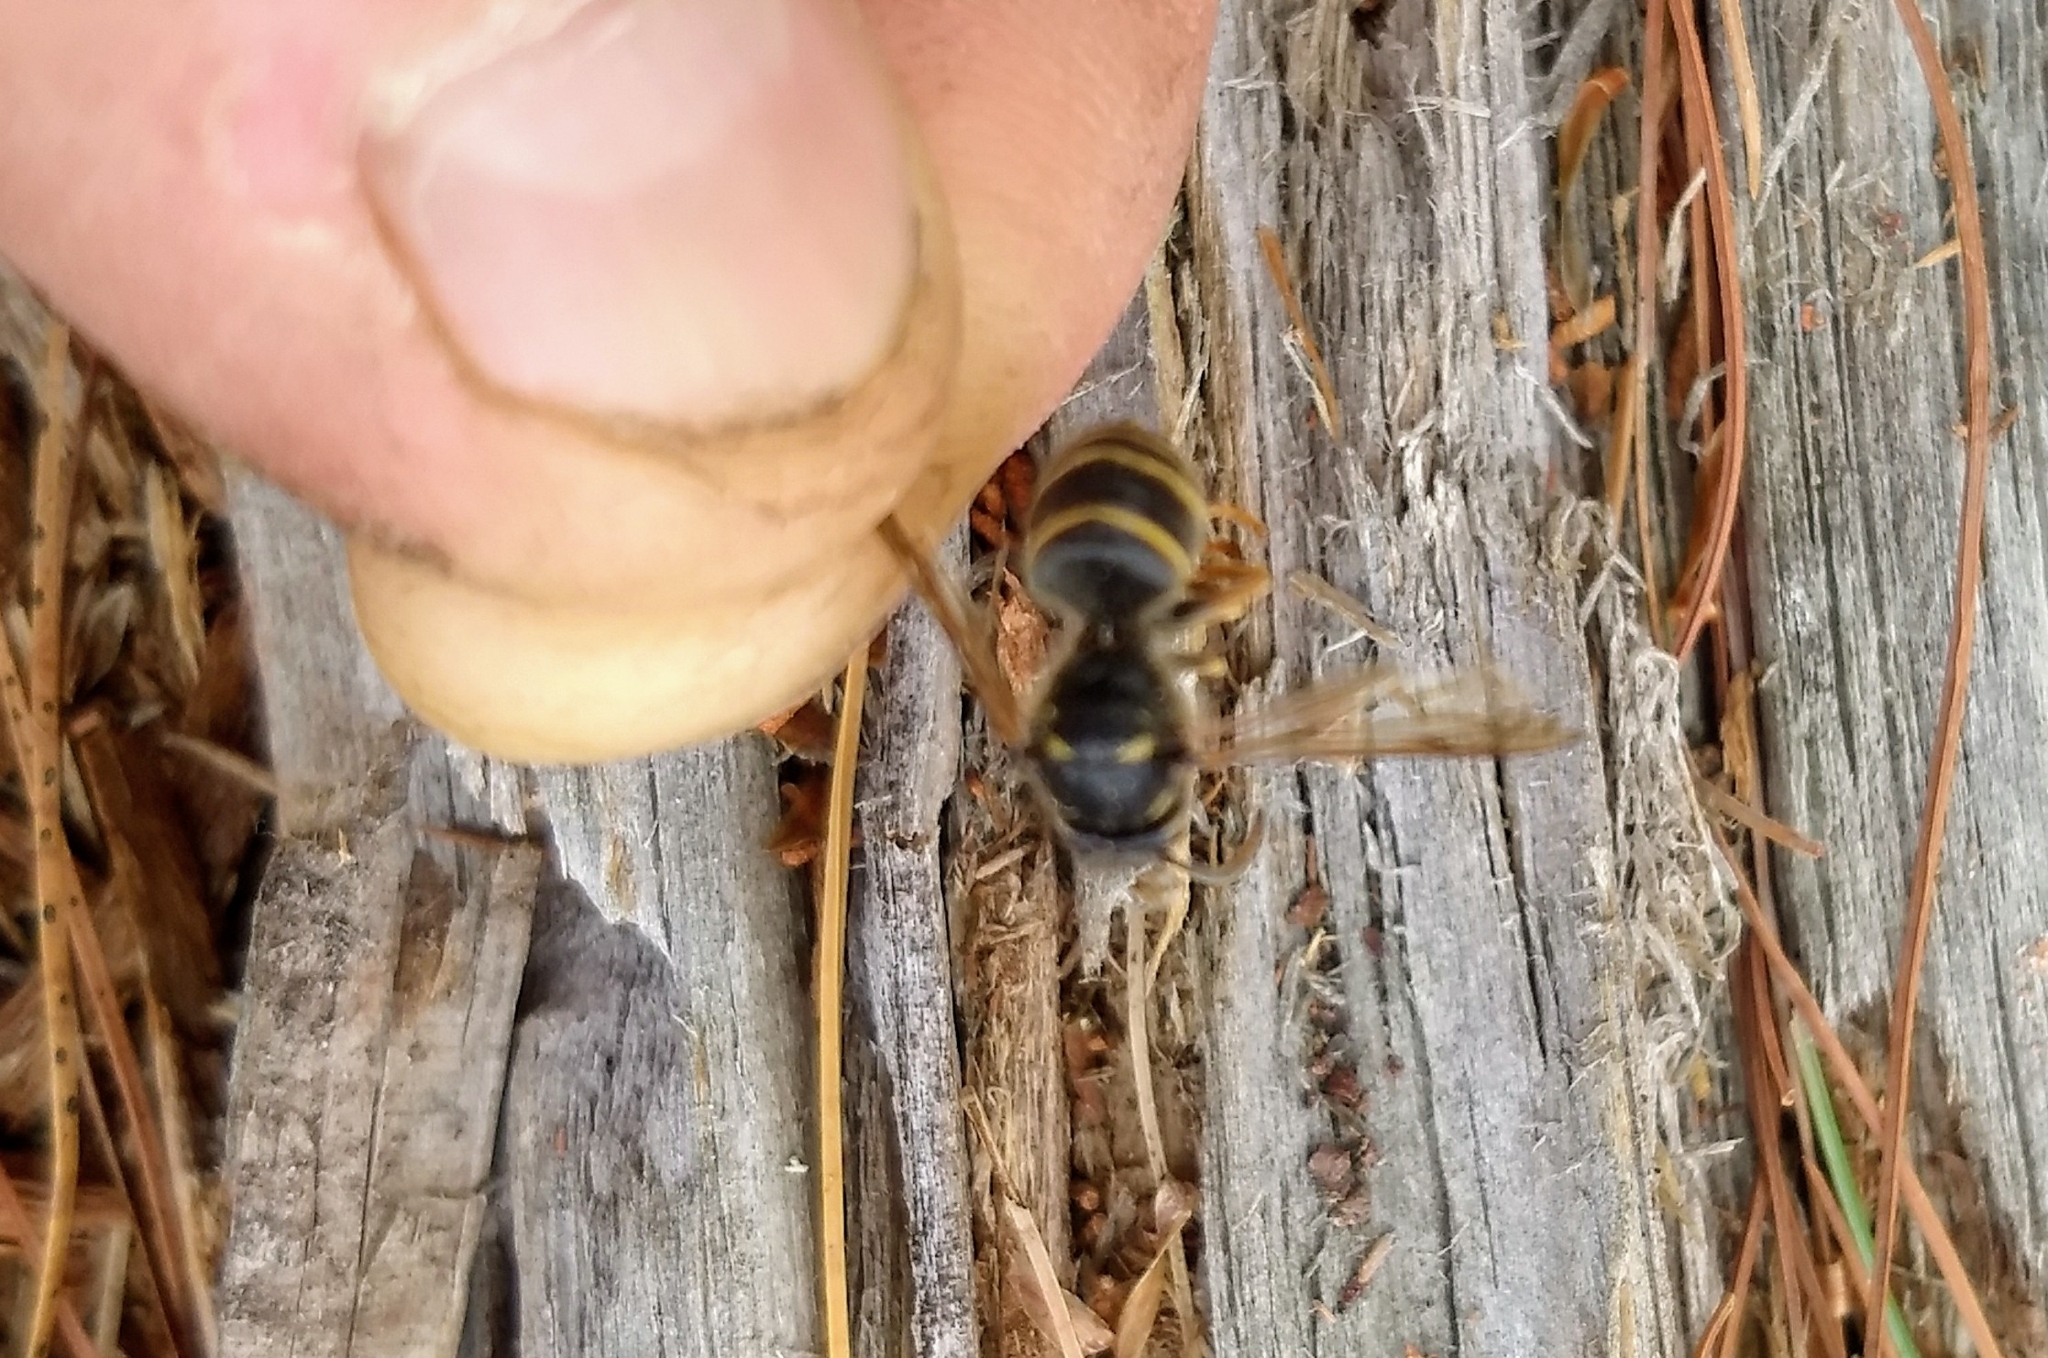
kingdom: Animalia
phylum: Arthropoda
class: Insecta
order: Hymenoptera
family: Vespidae
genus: Dolichovespula
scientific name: Dolichovespula norvegicoides
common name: Northern aerial yellowjacket
